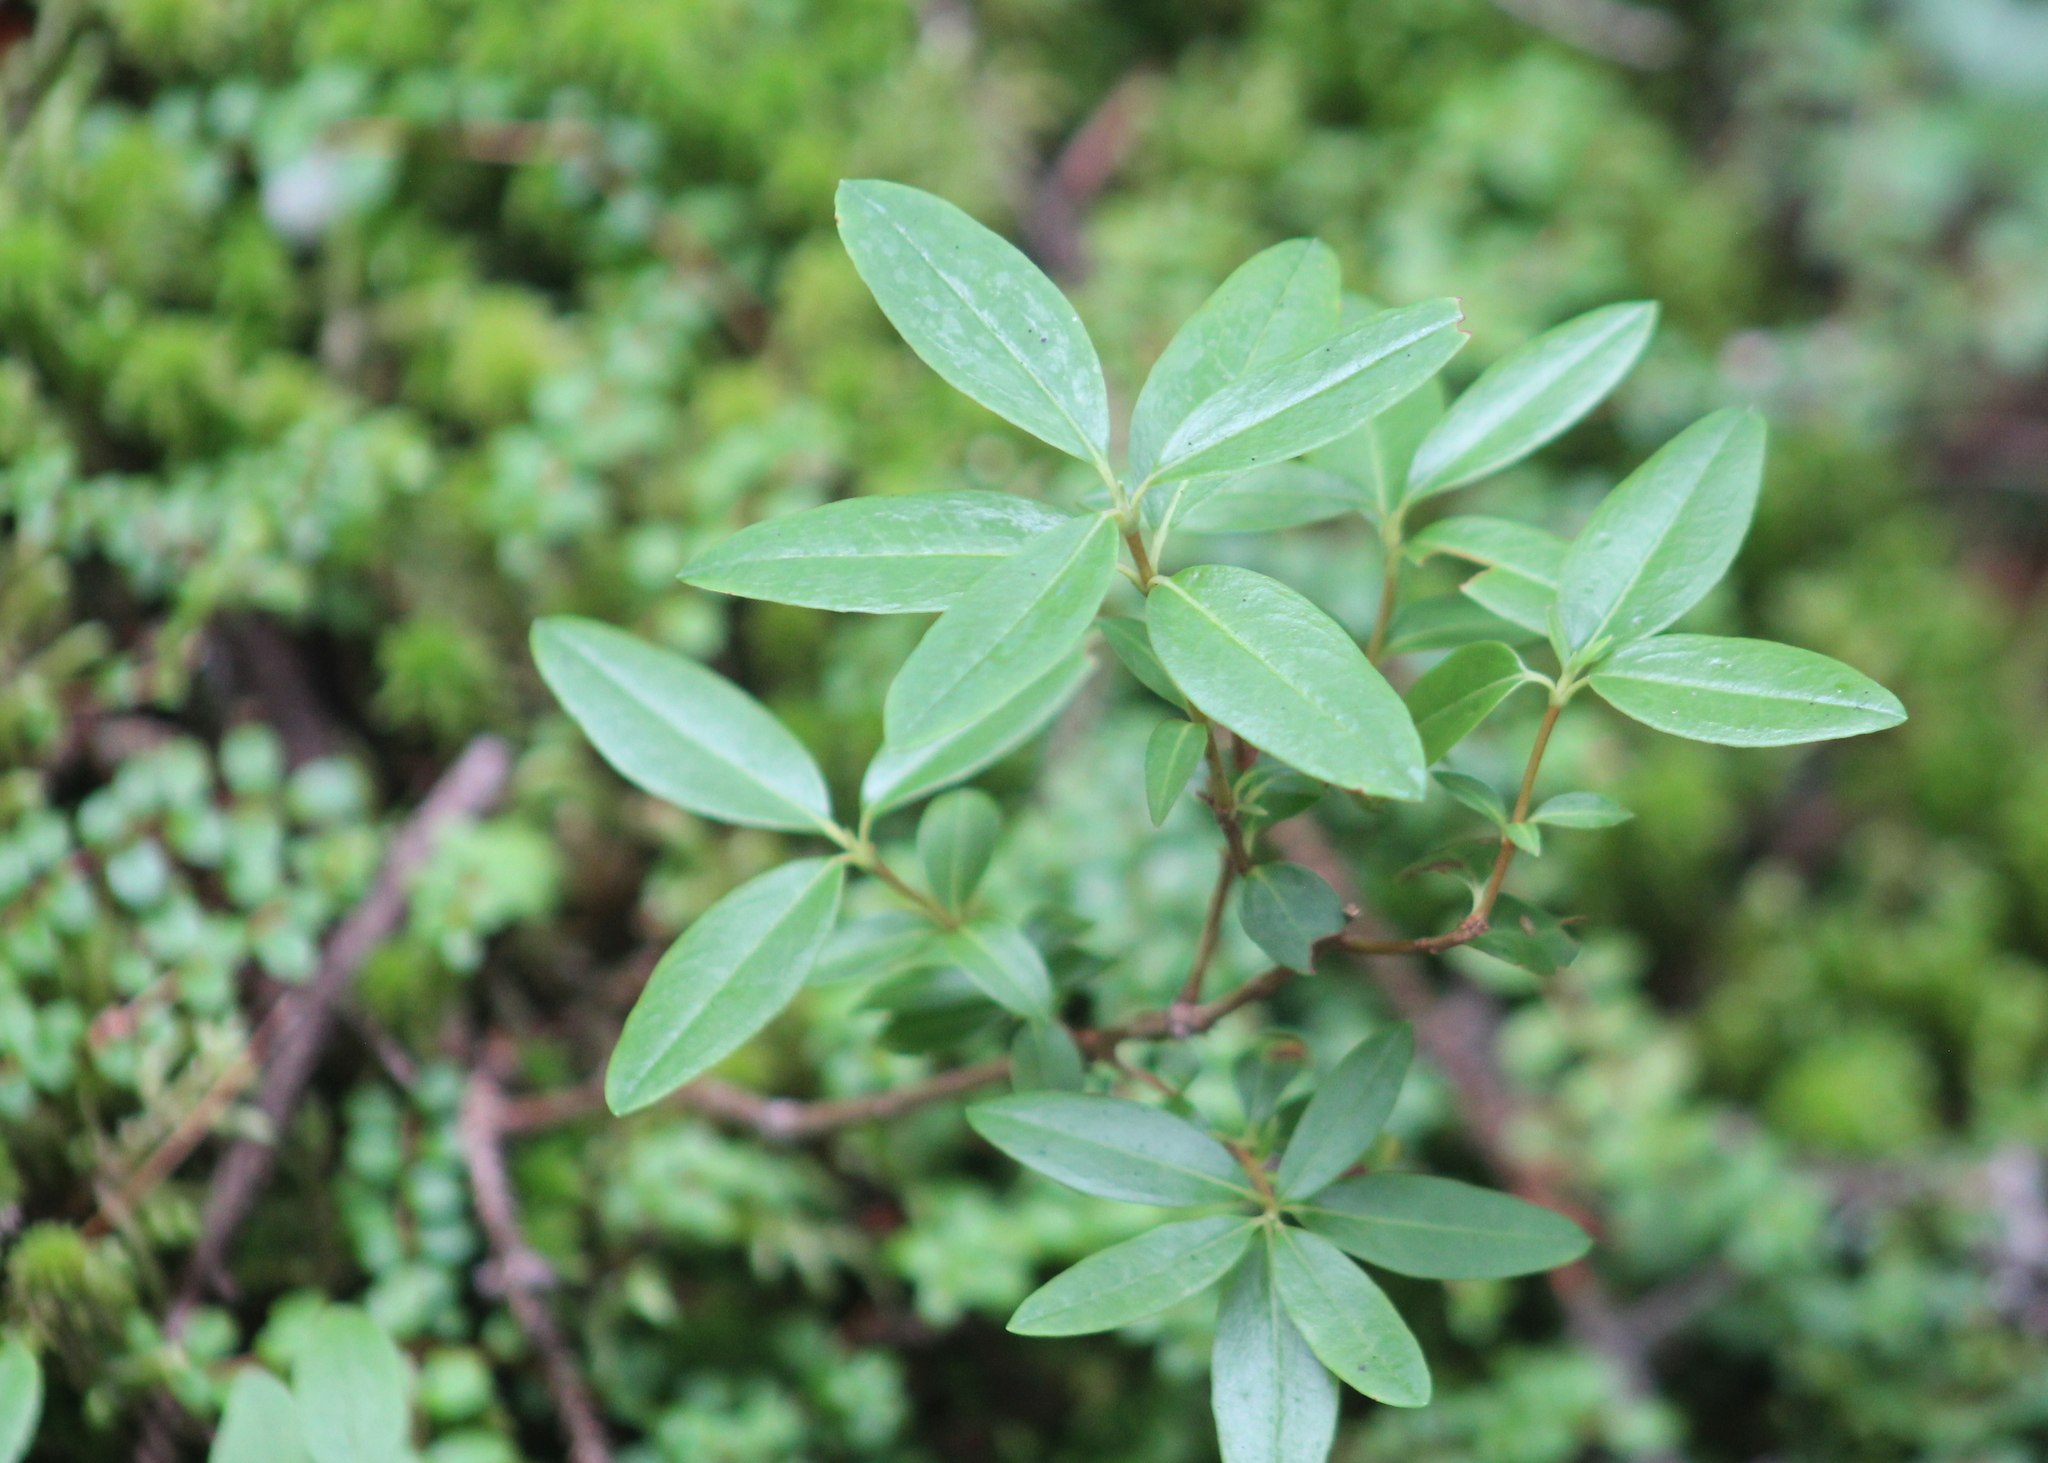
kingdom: Plantae
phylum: Tracheophyta
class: Magnoliopsida
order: Ericales
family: Ericaceae
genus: Kalmia
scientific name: Kalmia angustifolia
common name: Sheep-laurel
